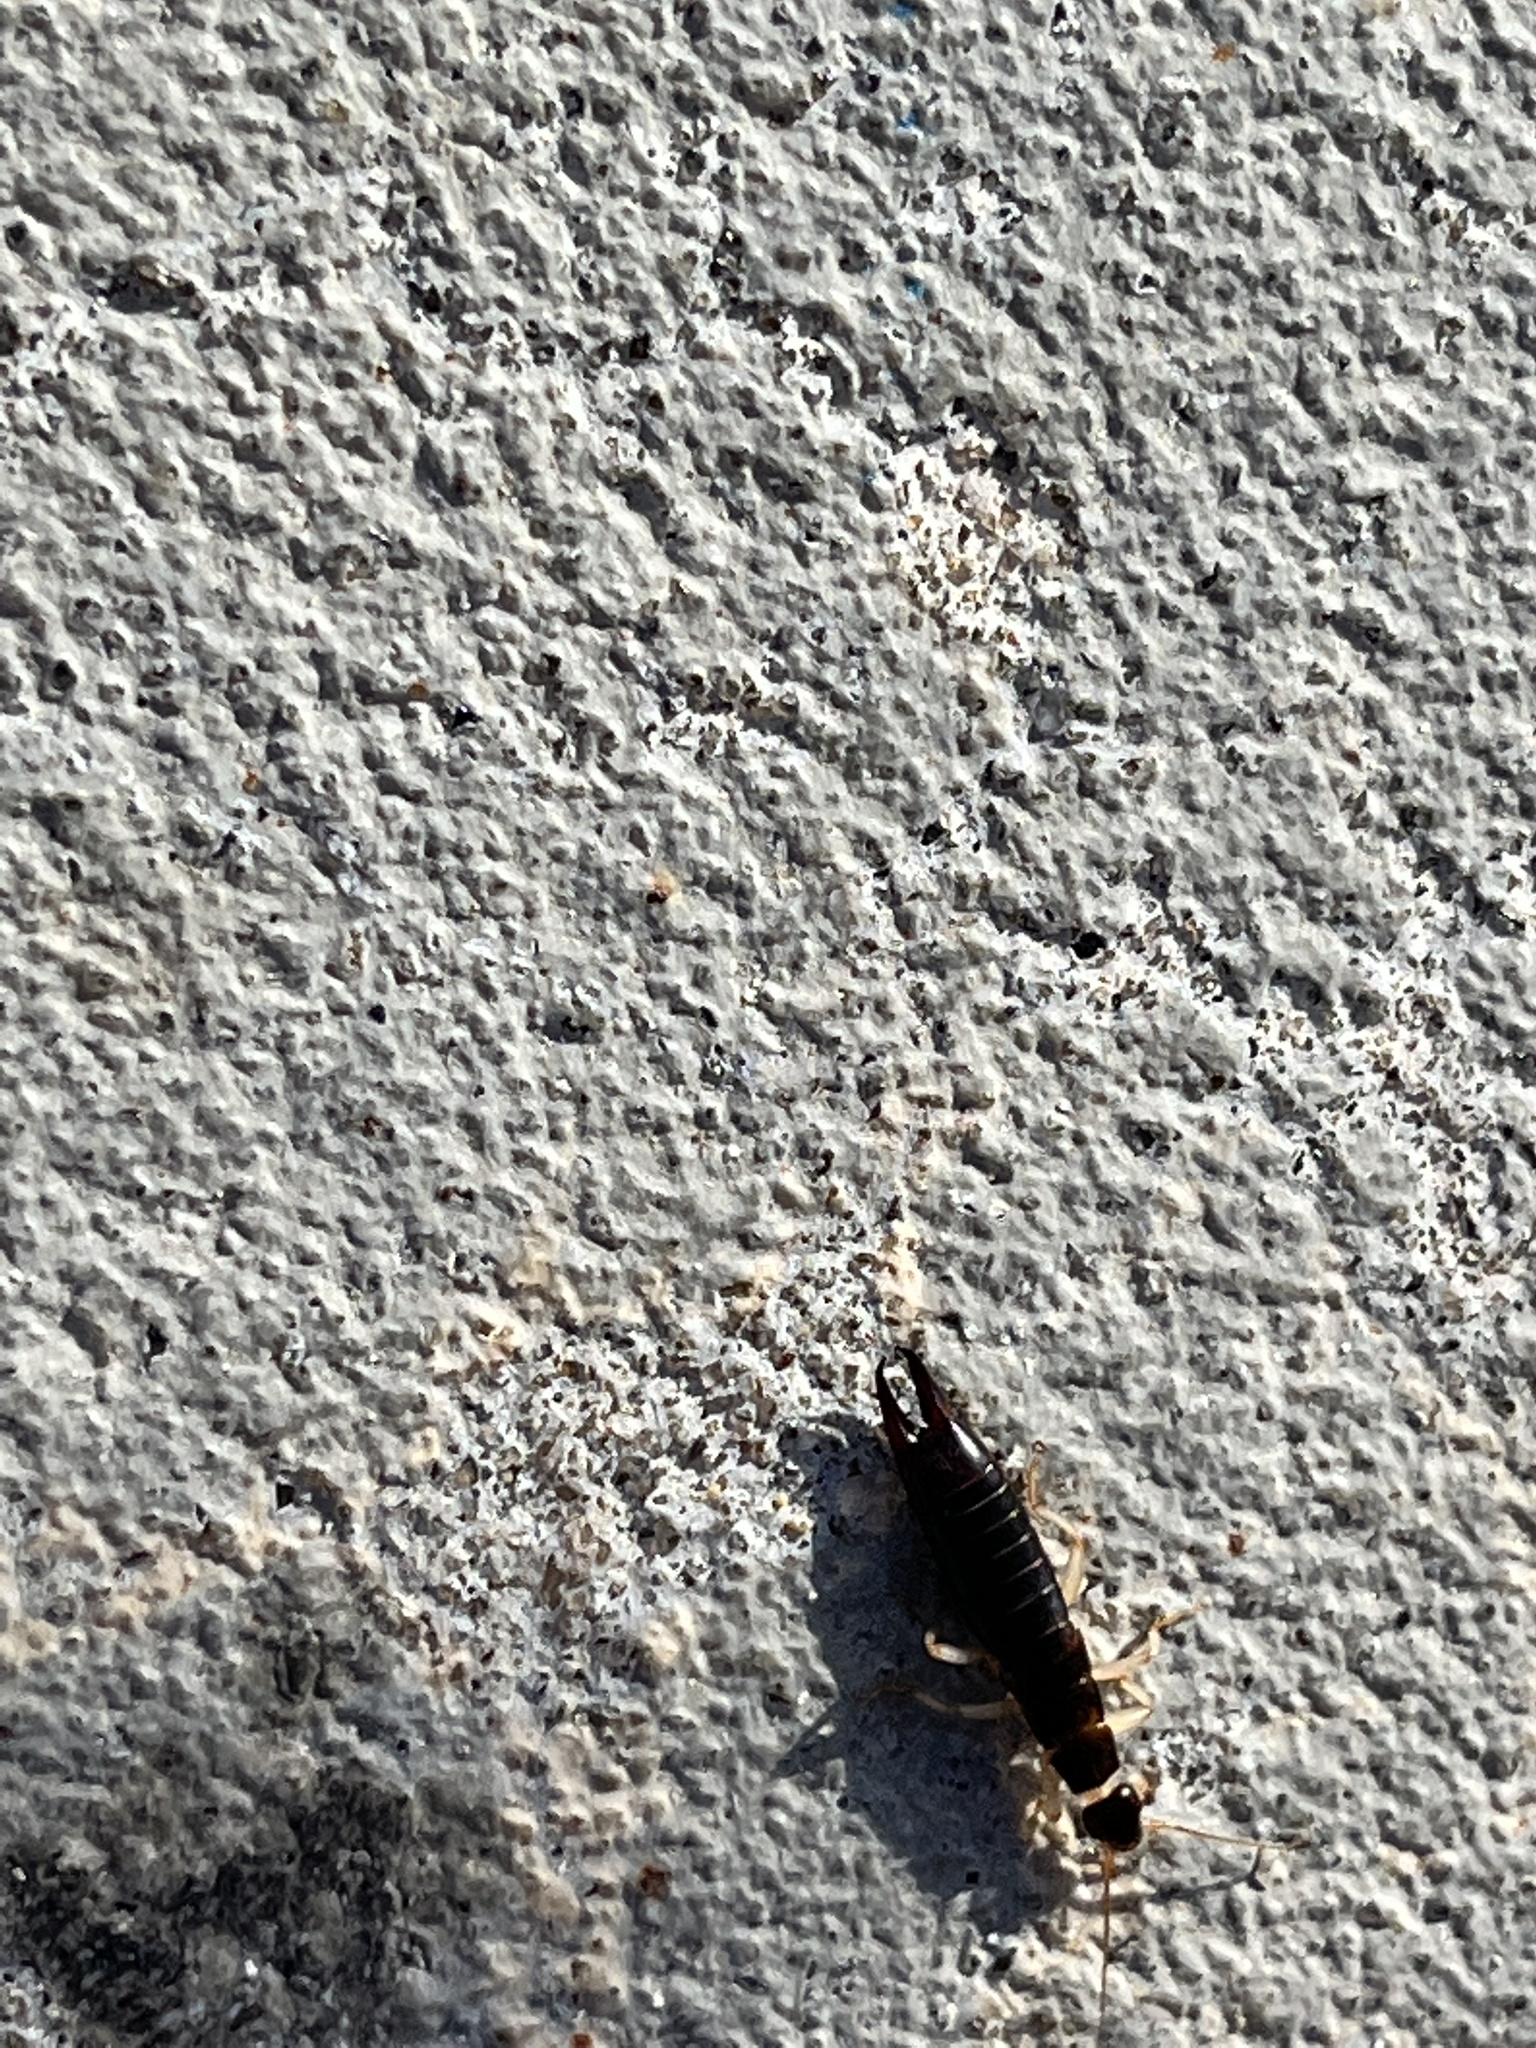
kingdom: Animalia
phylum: Arthropoda
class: Insecta
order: Dermaptera
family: Anisolabididae
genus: Anisolabis
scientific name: Anisolabis maritima
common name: Maritime earwig
